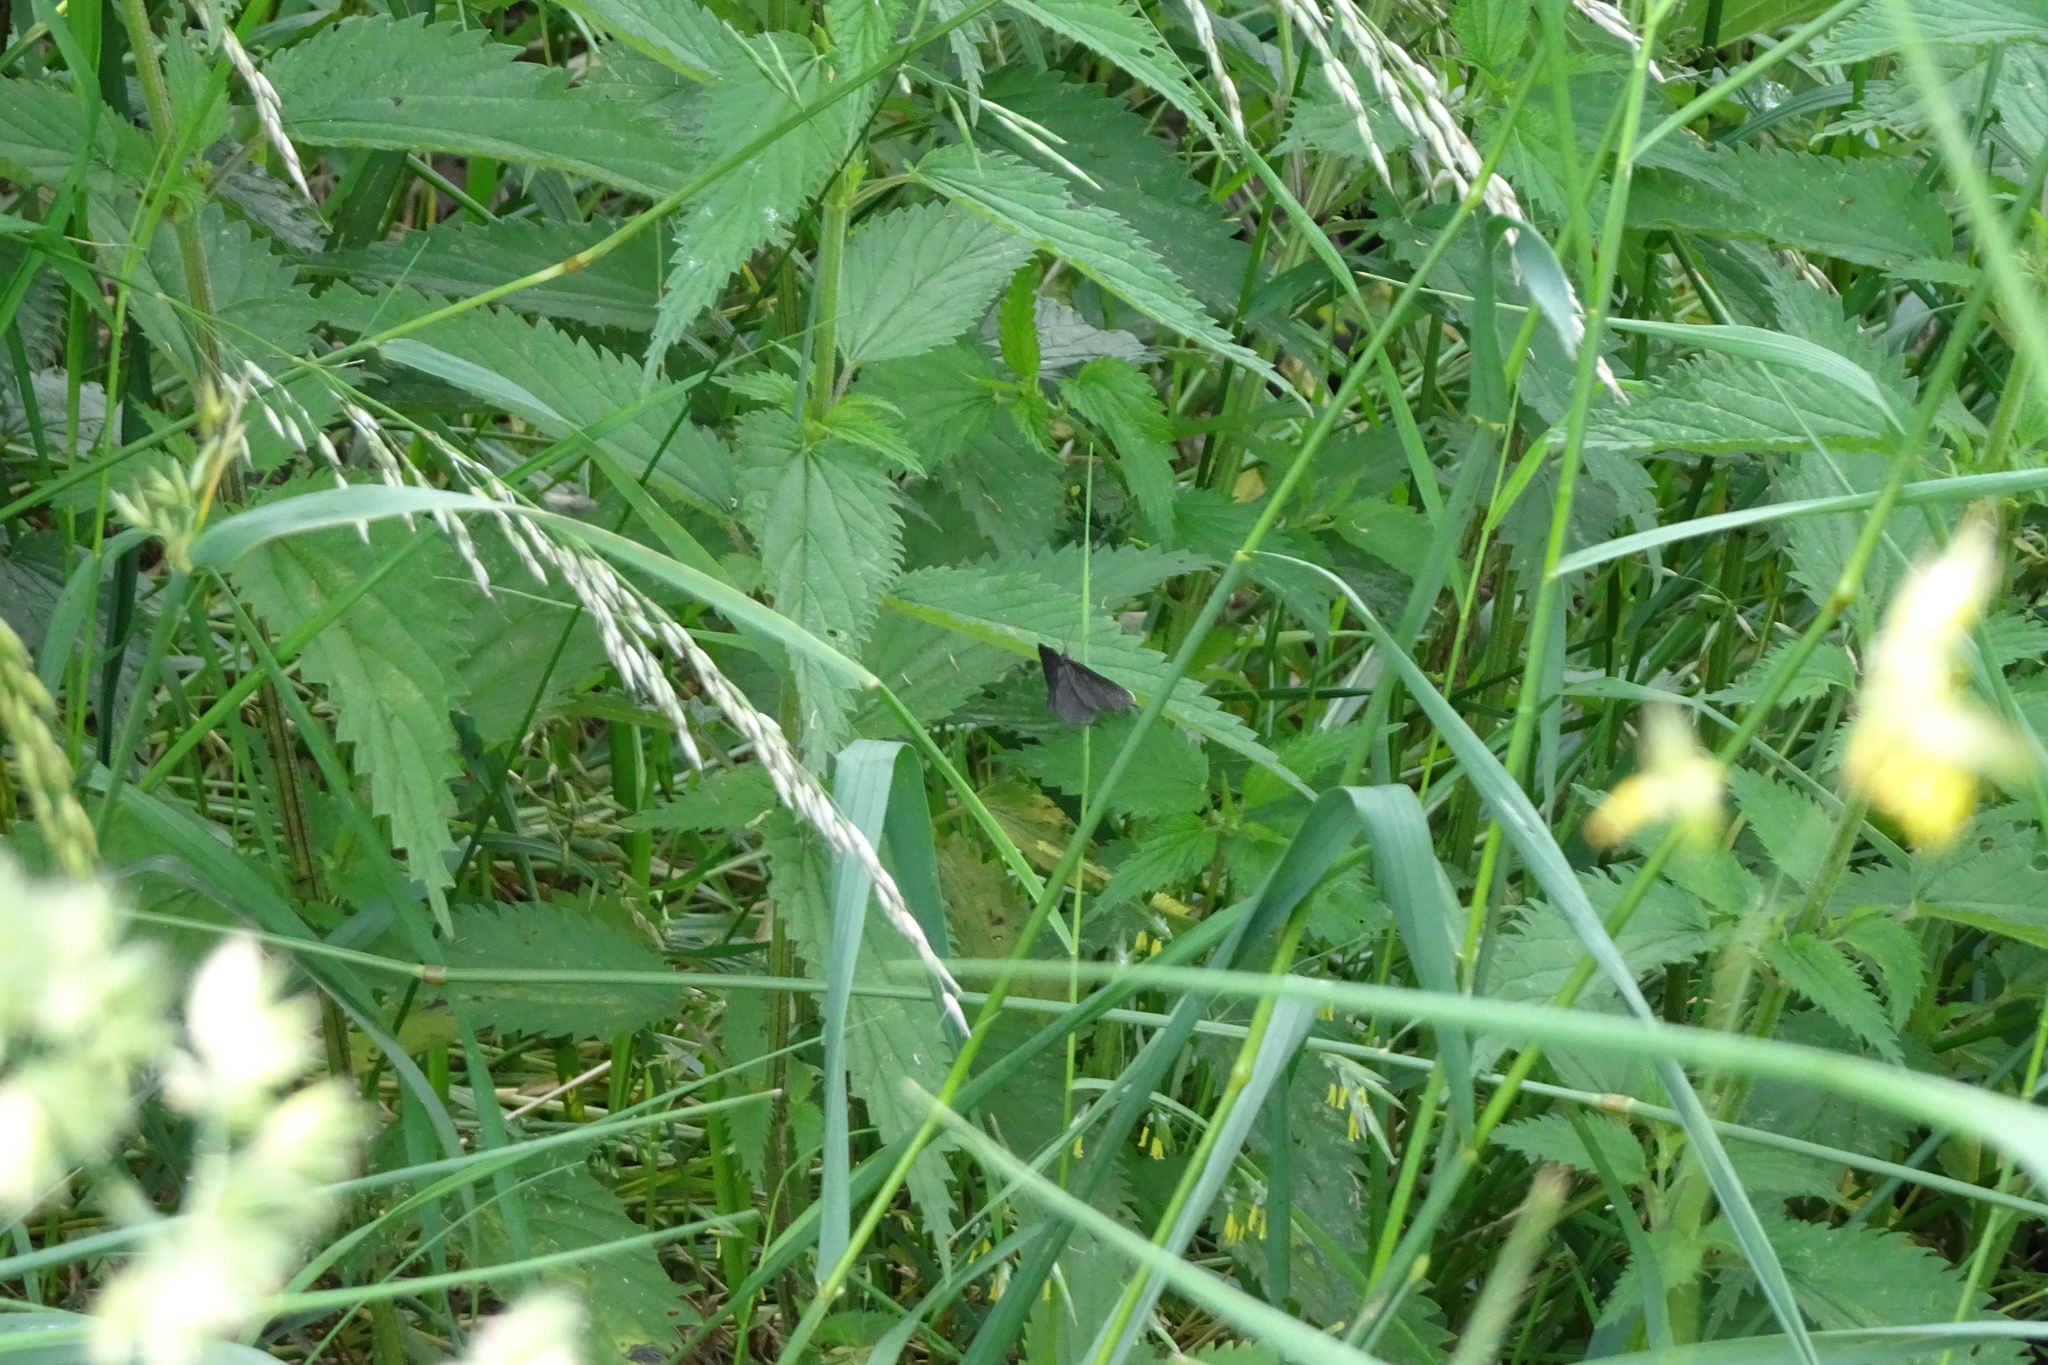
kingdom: Animalia
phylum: Arthropoda
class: Insecta
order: Lepidoptera
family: Geometridae
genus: Odezia
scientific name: Odezia atrata
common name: Chimney sweeper
